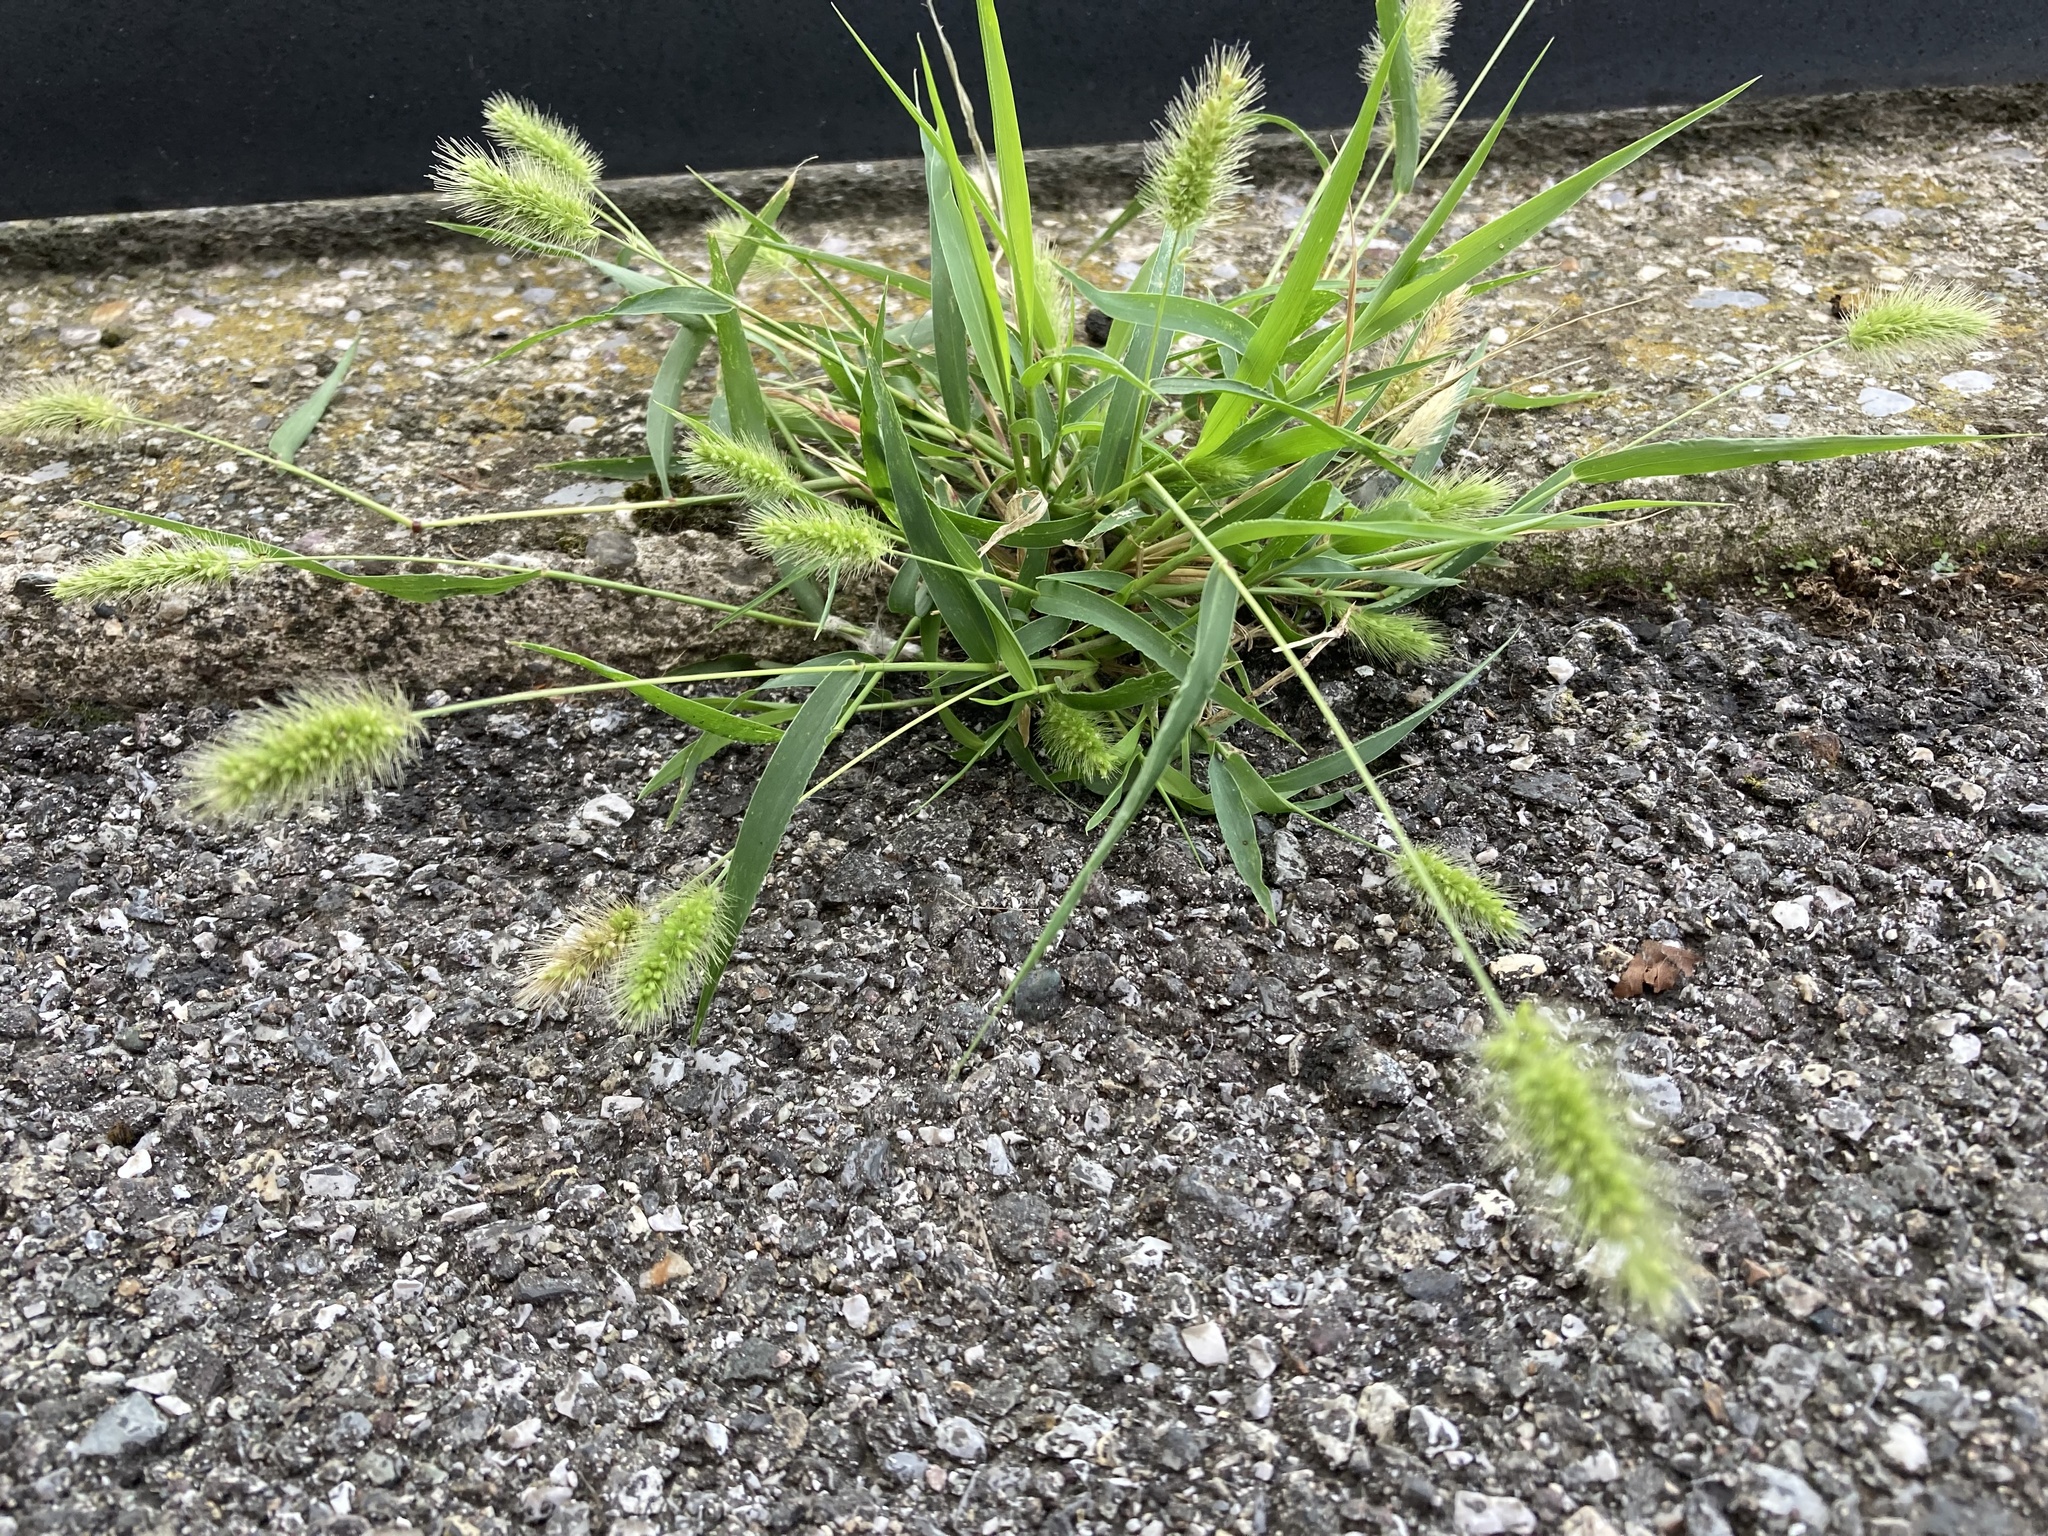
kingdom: Plantae
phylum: Tracheophyta
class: Liliopsida
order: Poales
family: Poaceae
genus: Setaria
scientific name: Setaria viridis
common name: Green bristlegrass
